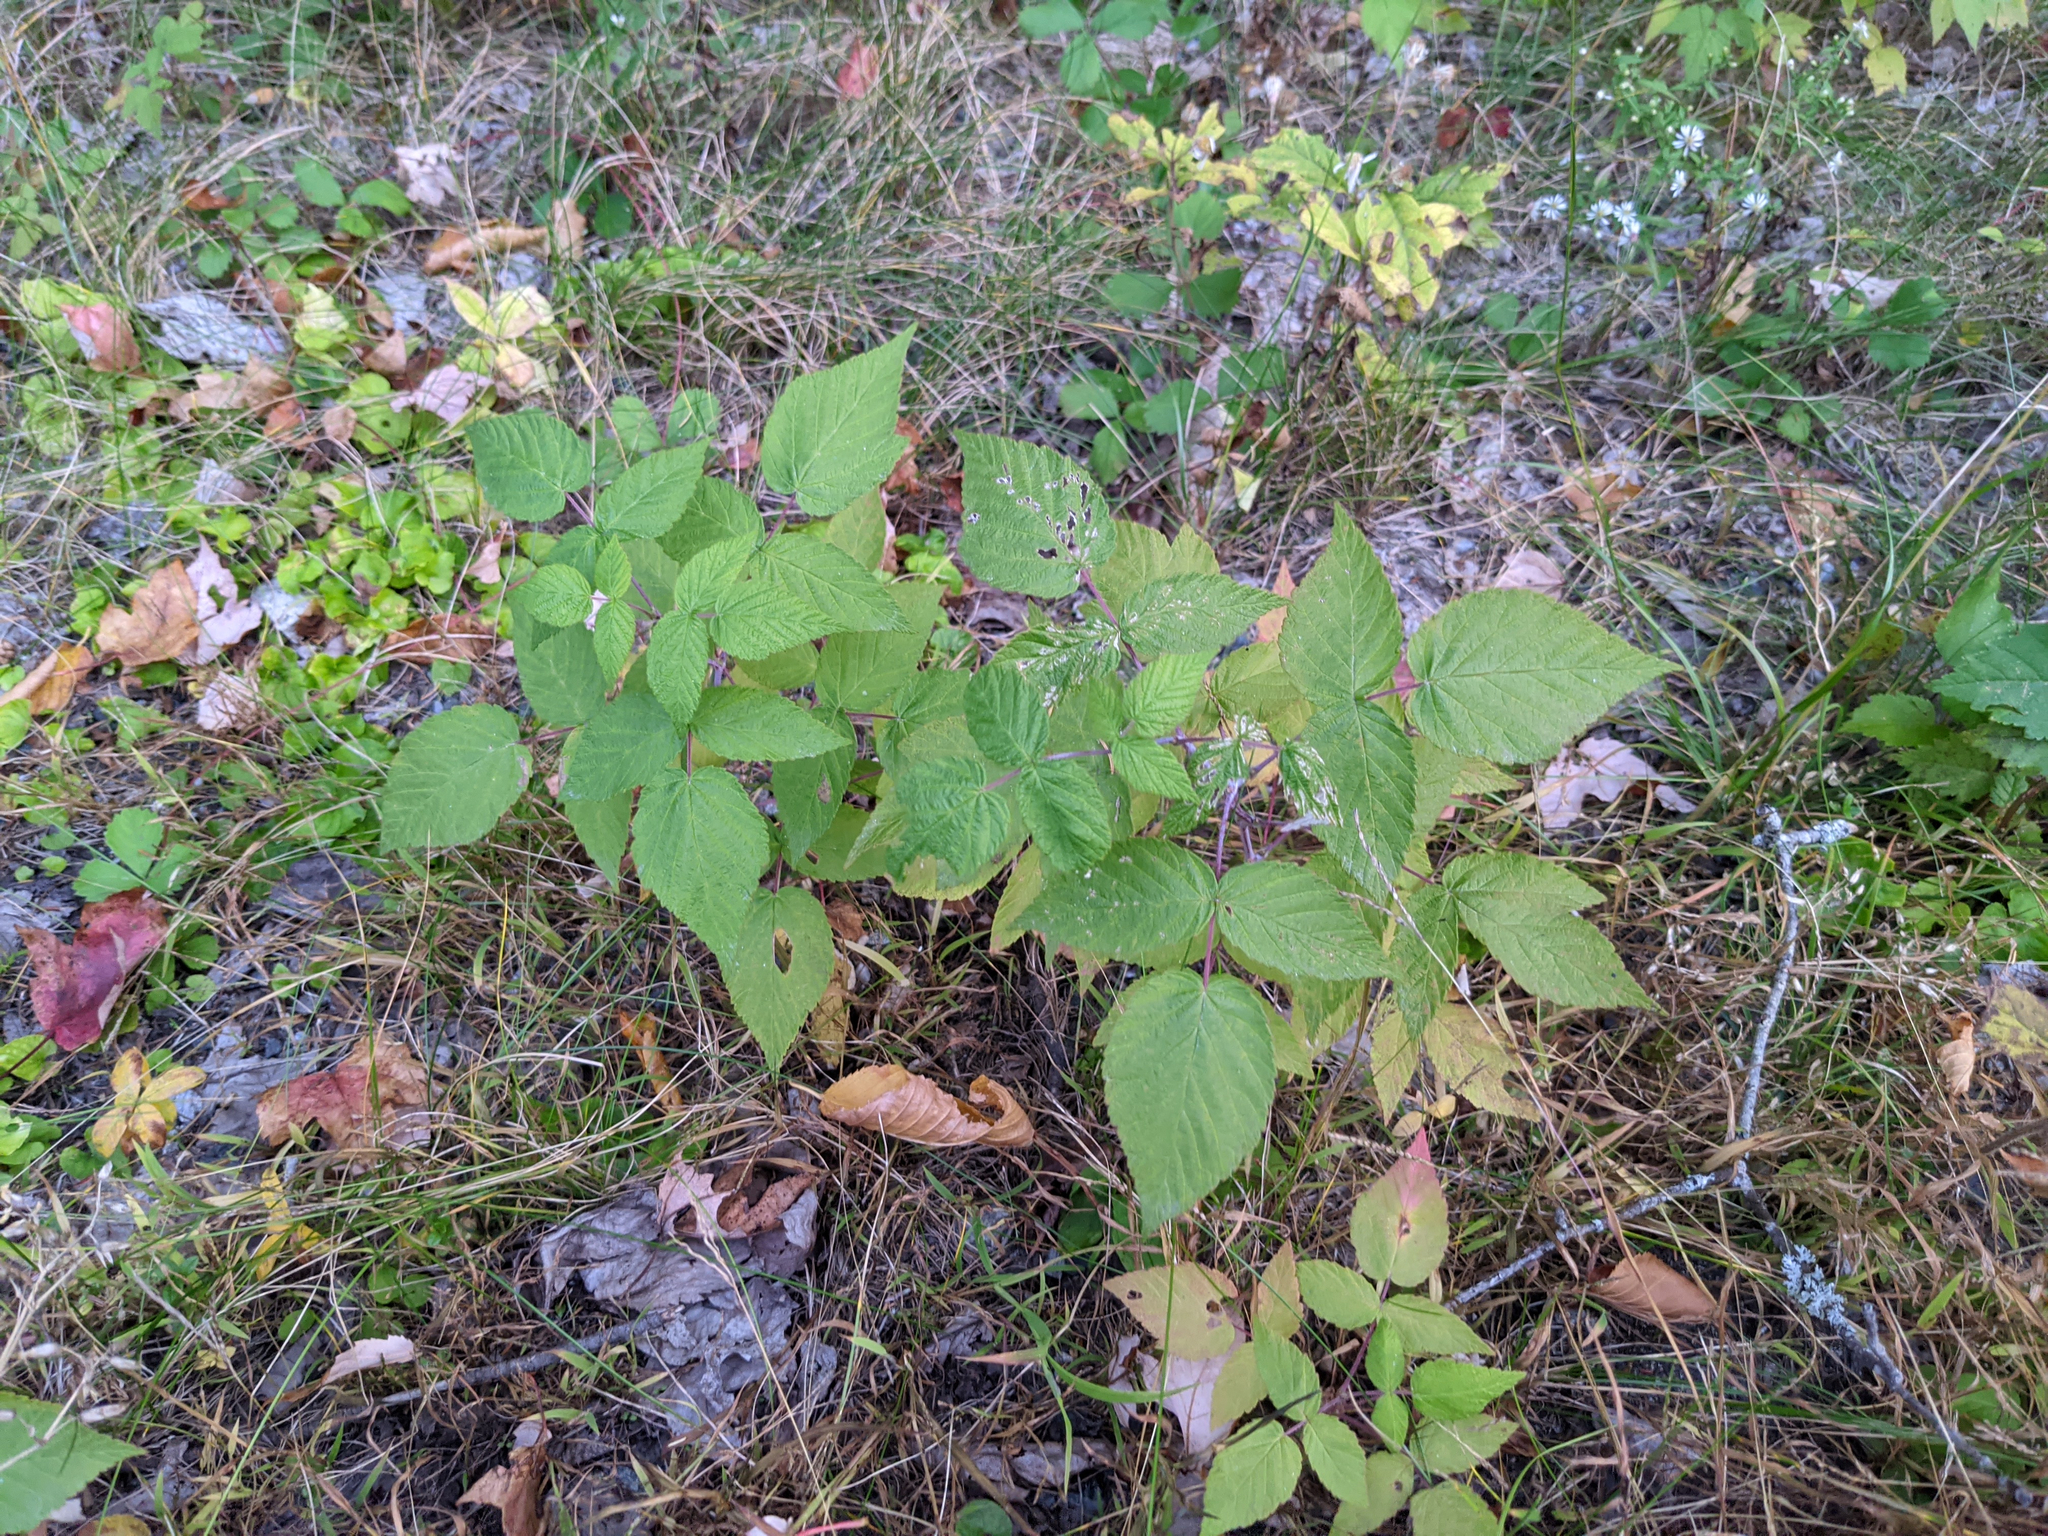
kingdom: Plantae
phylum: Tracheophyta
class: Magnoliopsida
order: Rosales
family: Rosaceae
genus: Rubus
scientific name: Rubus idaeus
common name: Raspberry
